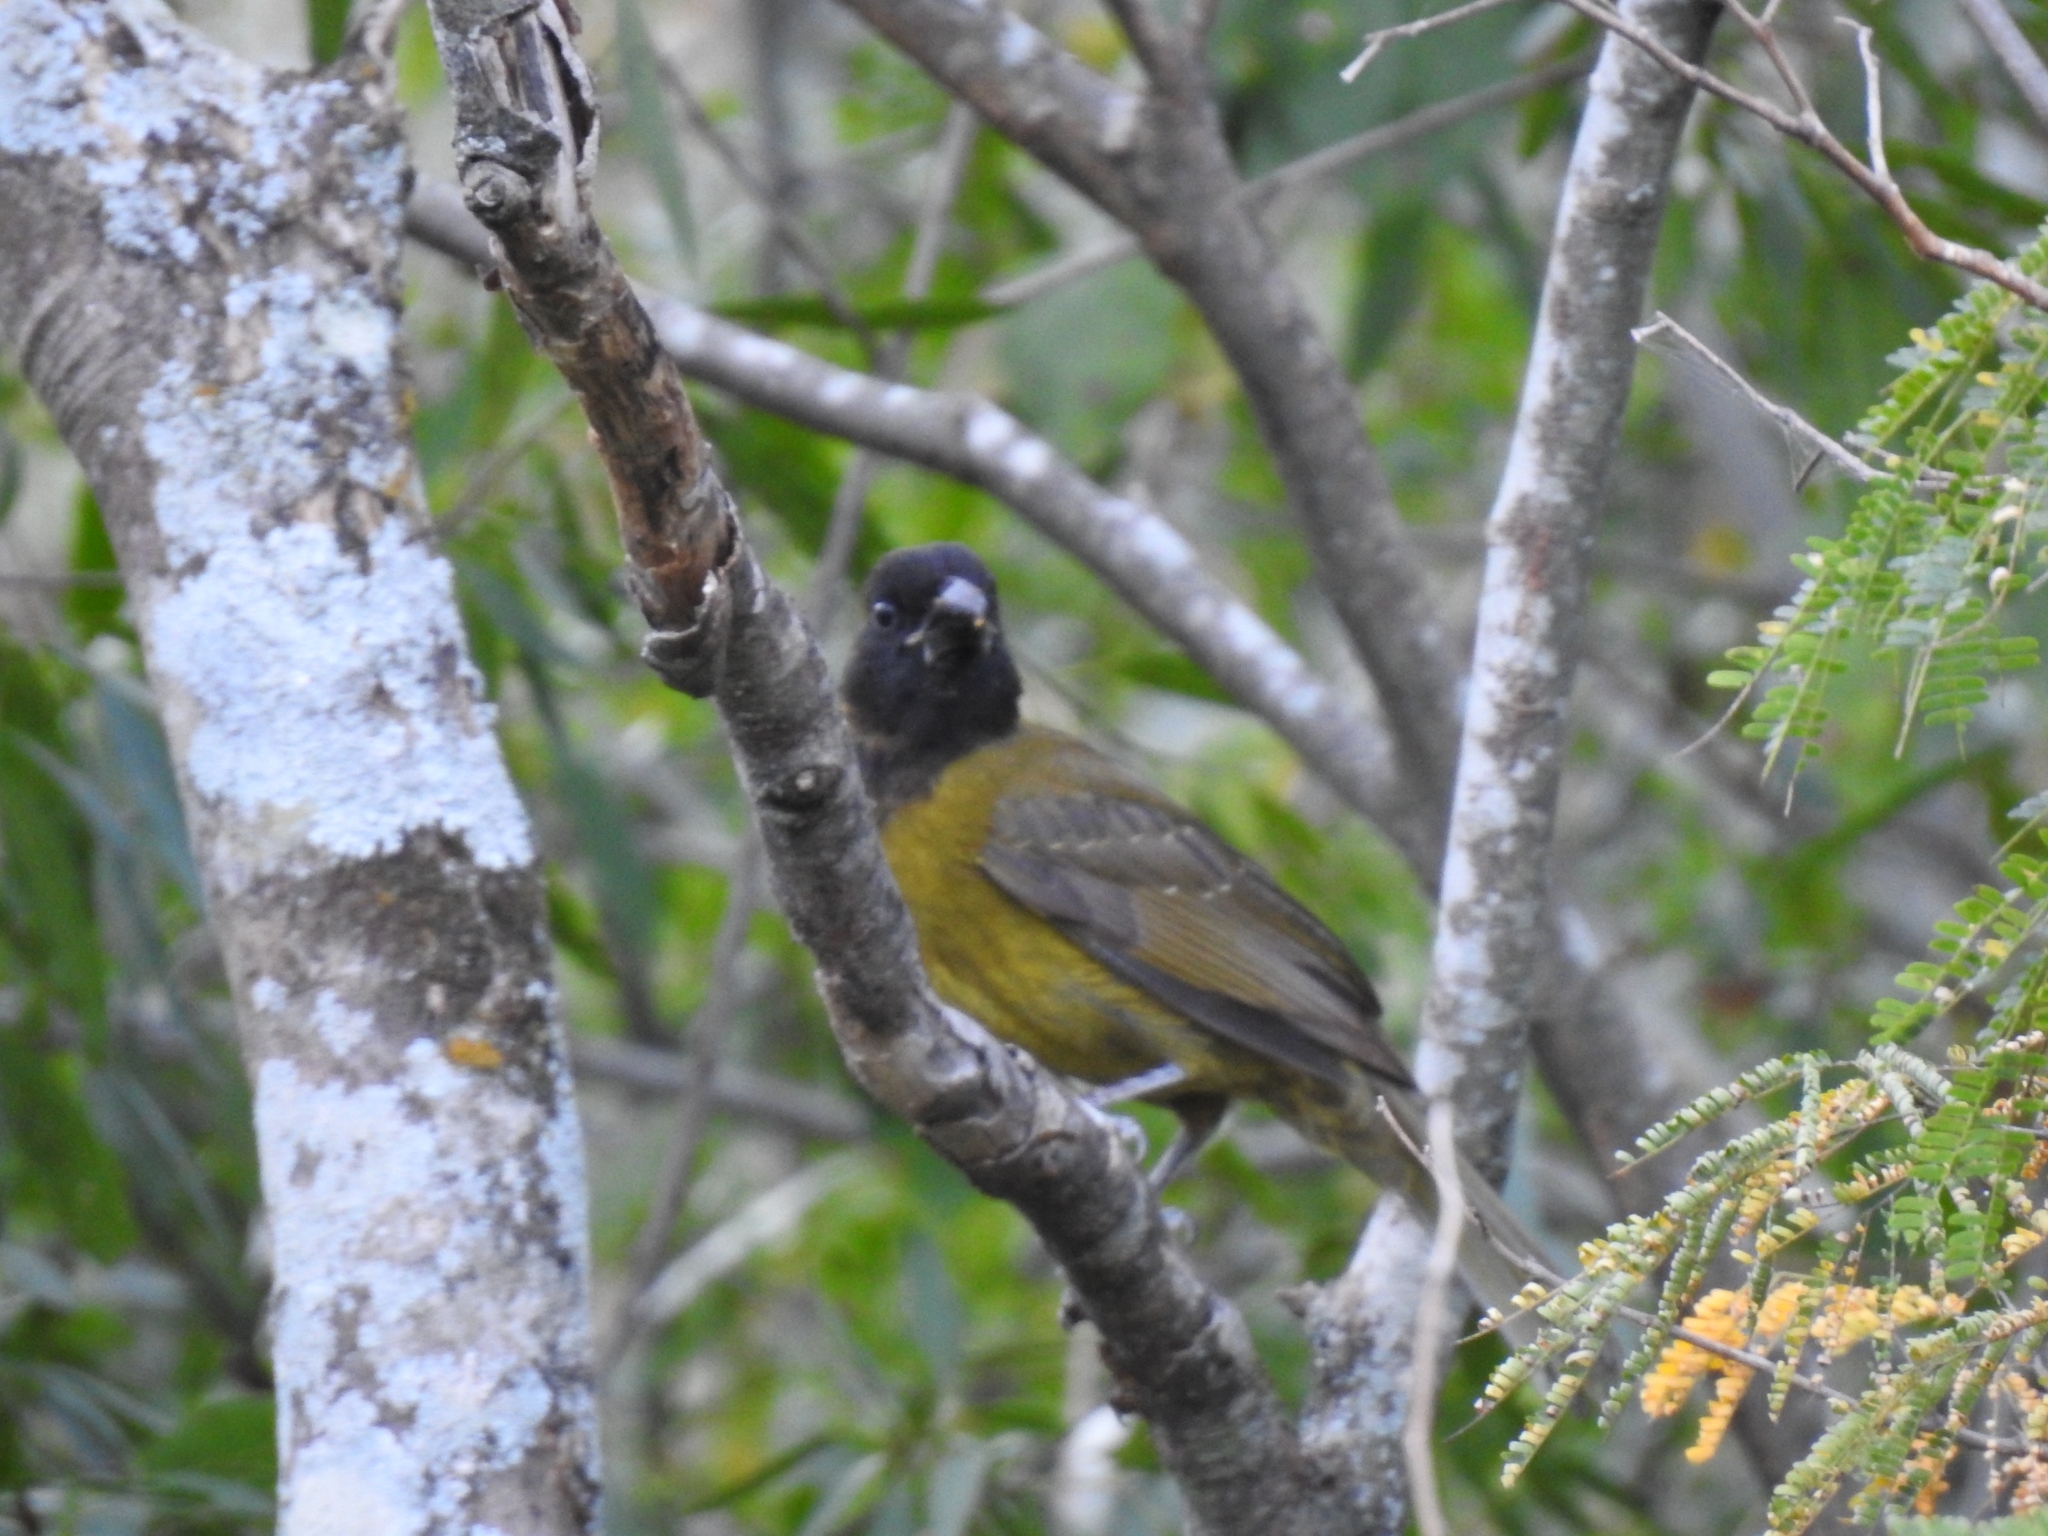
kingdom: Animalia
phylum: Chordata
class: Aves
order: Passeriformes
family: Cardinalidae
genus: Rhodothraupis
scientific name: Rhodothraupis celaeno
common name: Crimson-collared grosbeak
